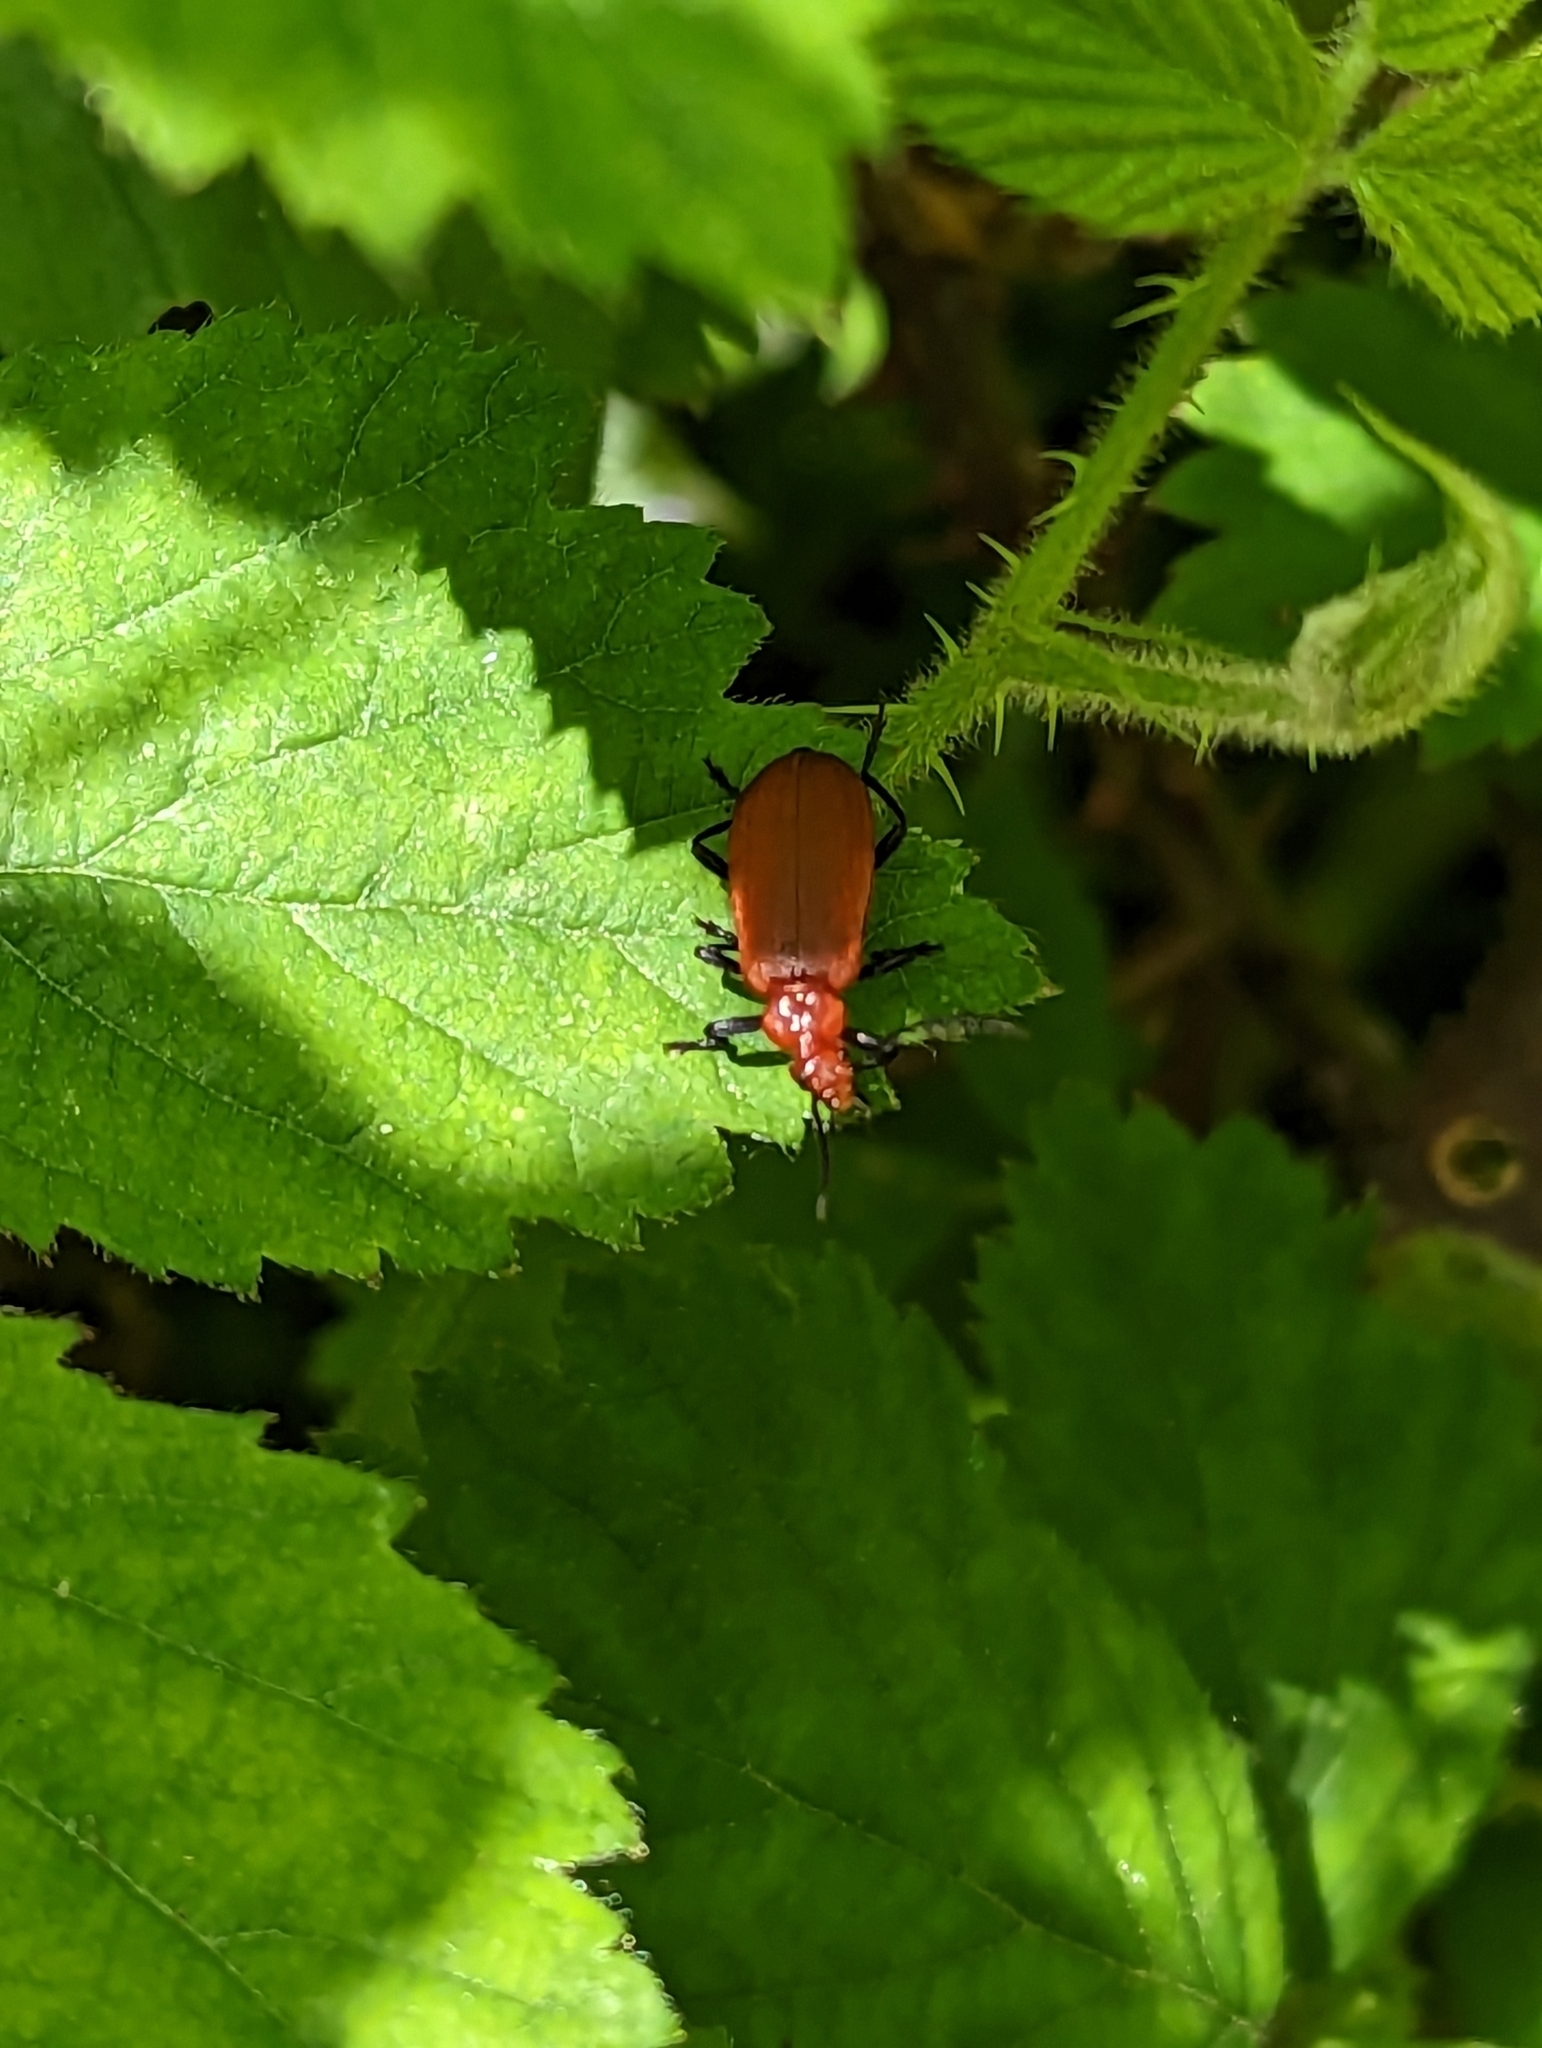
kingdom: Animalia
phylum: Arthropoda
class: Insecta
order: Coleoptera
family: Pyrochroidae
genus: Pyrochroa
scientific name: Pyrochroa serraticornis
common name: Red-headed cardinal beetle
